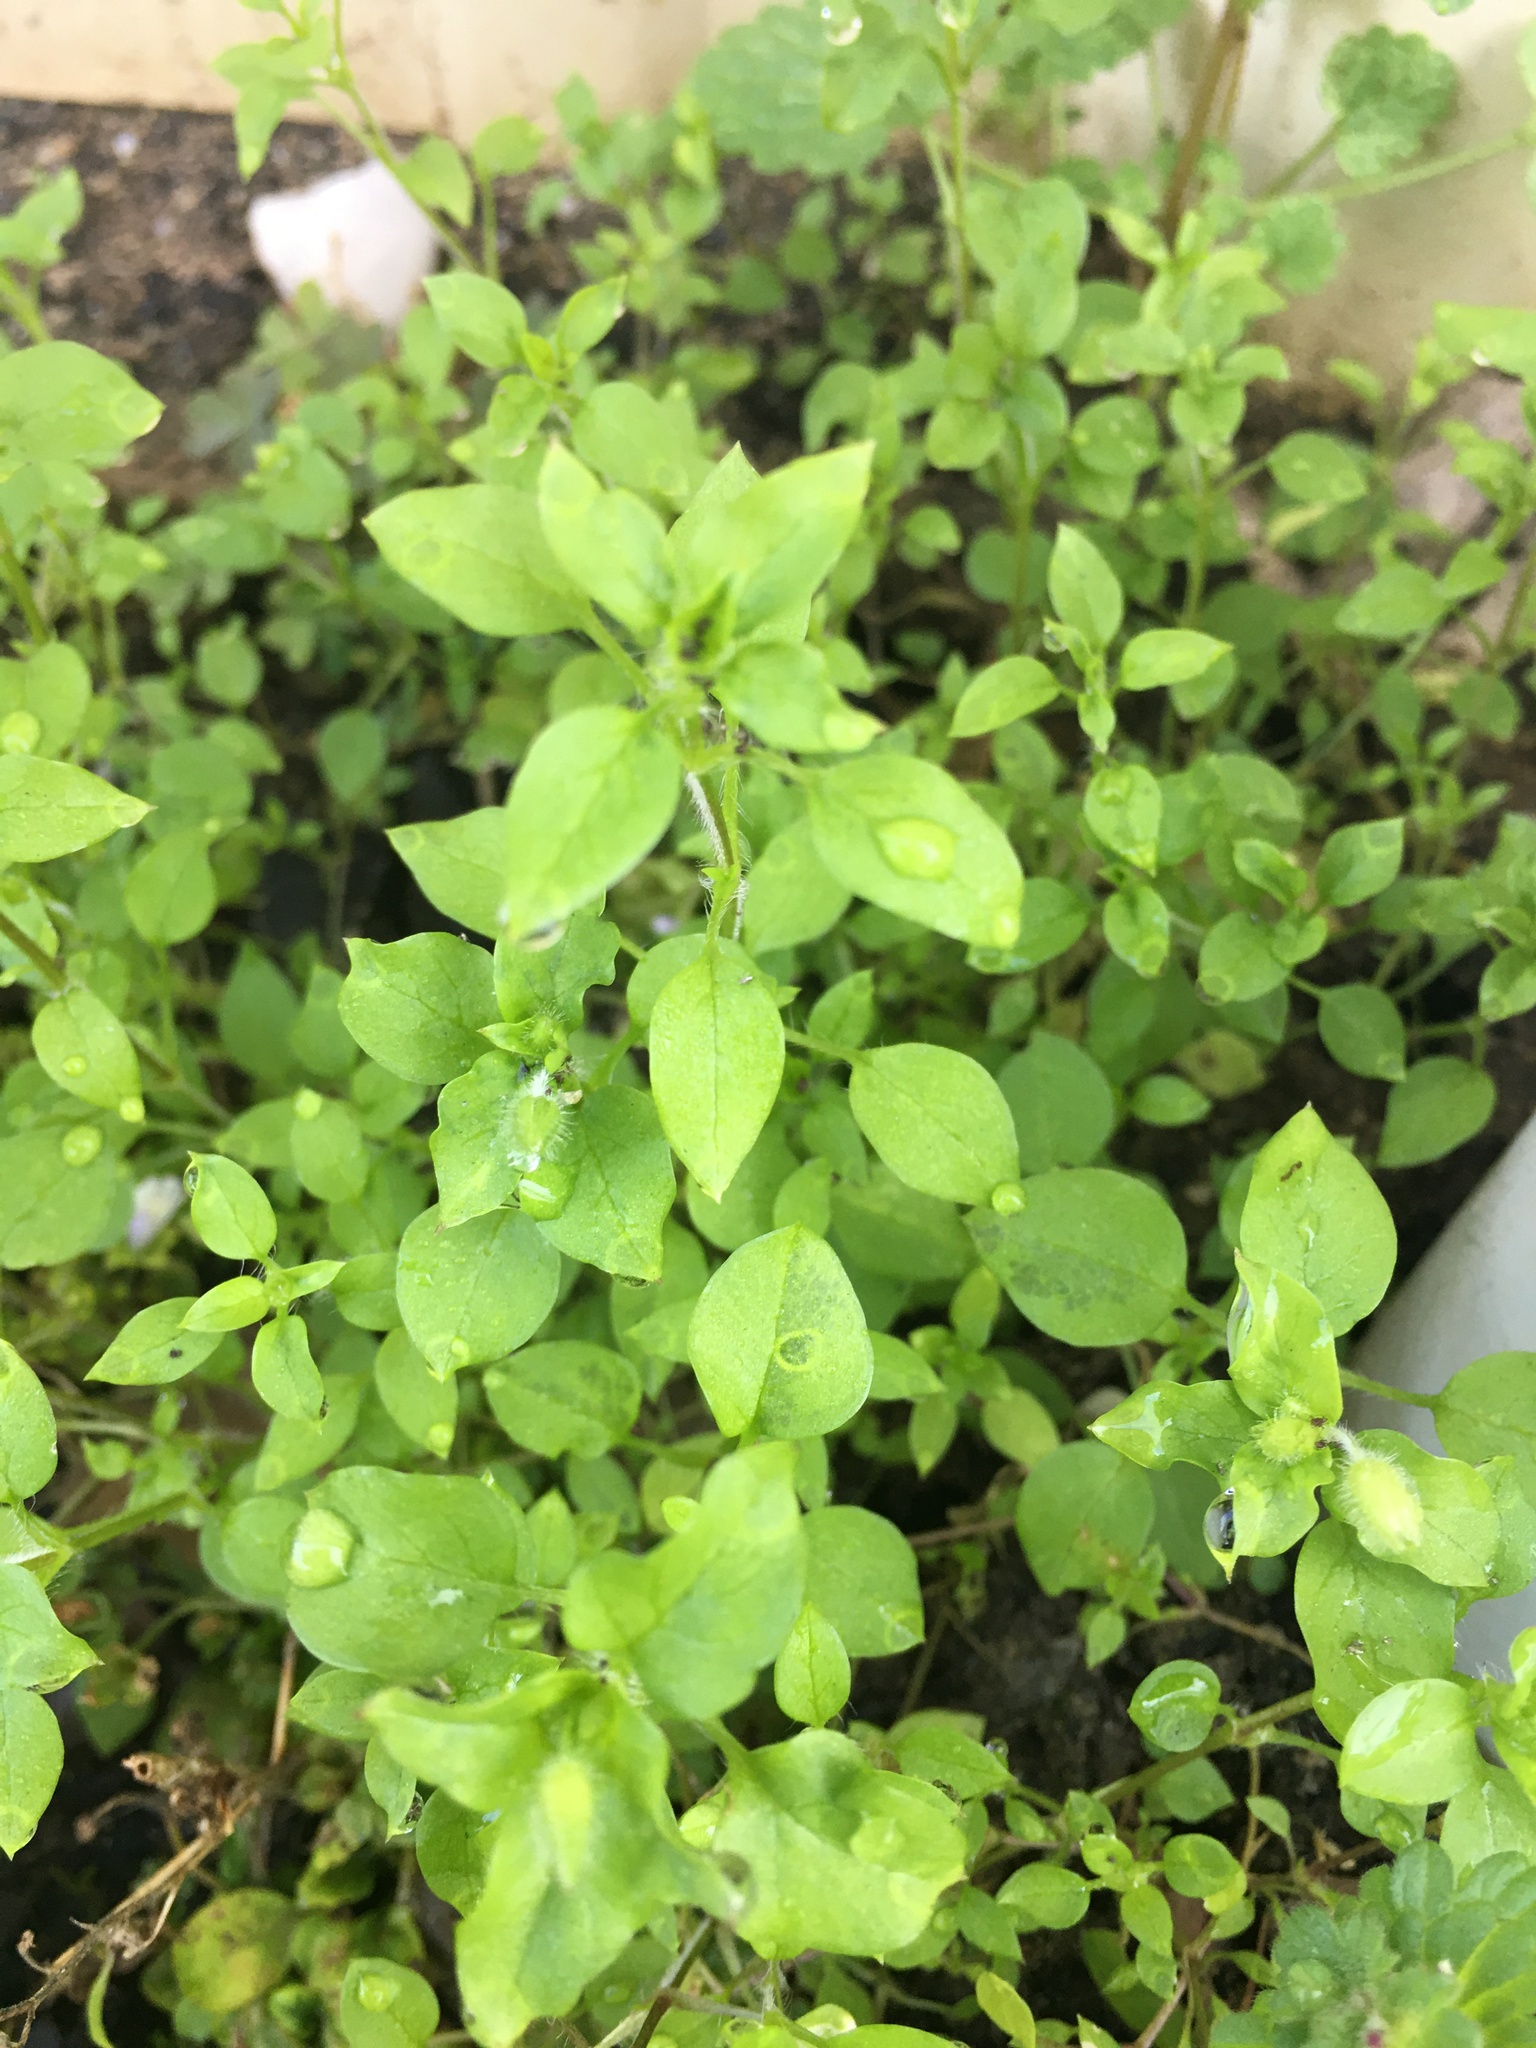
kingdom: Plantae
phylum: Tracheophyta
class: Magnoliopsida
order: Caryophyllales
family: Caryophyllaceae
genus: Stellaria
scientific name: Stellaria media
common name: Common chickweed
